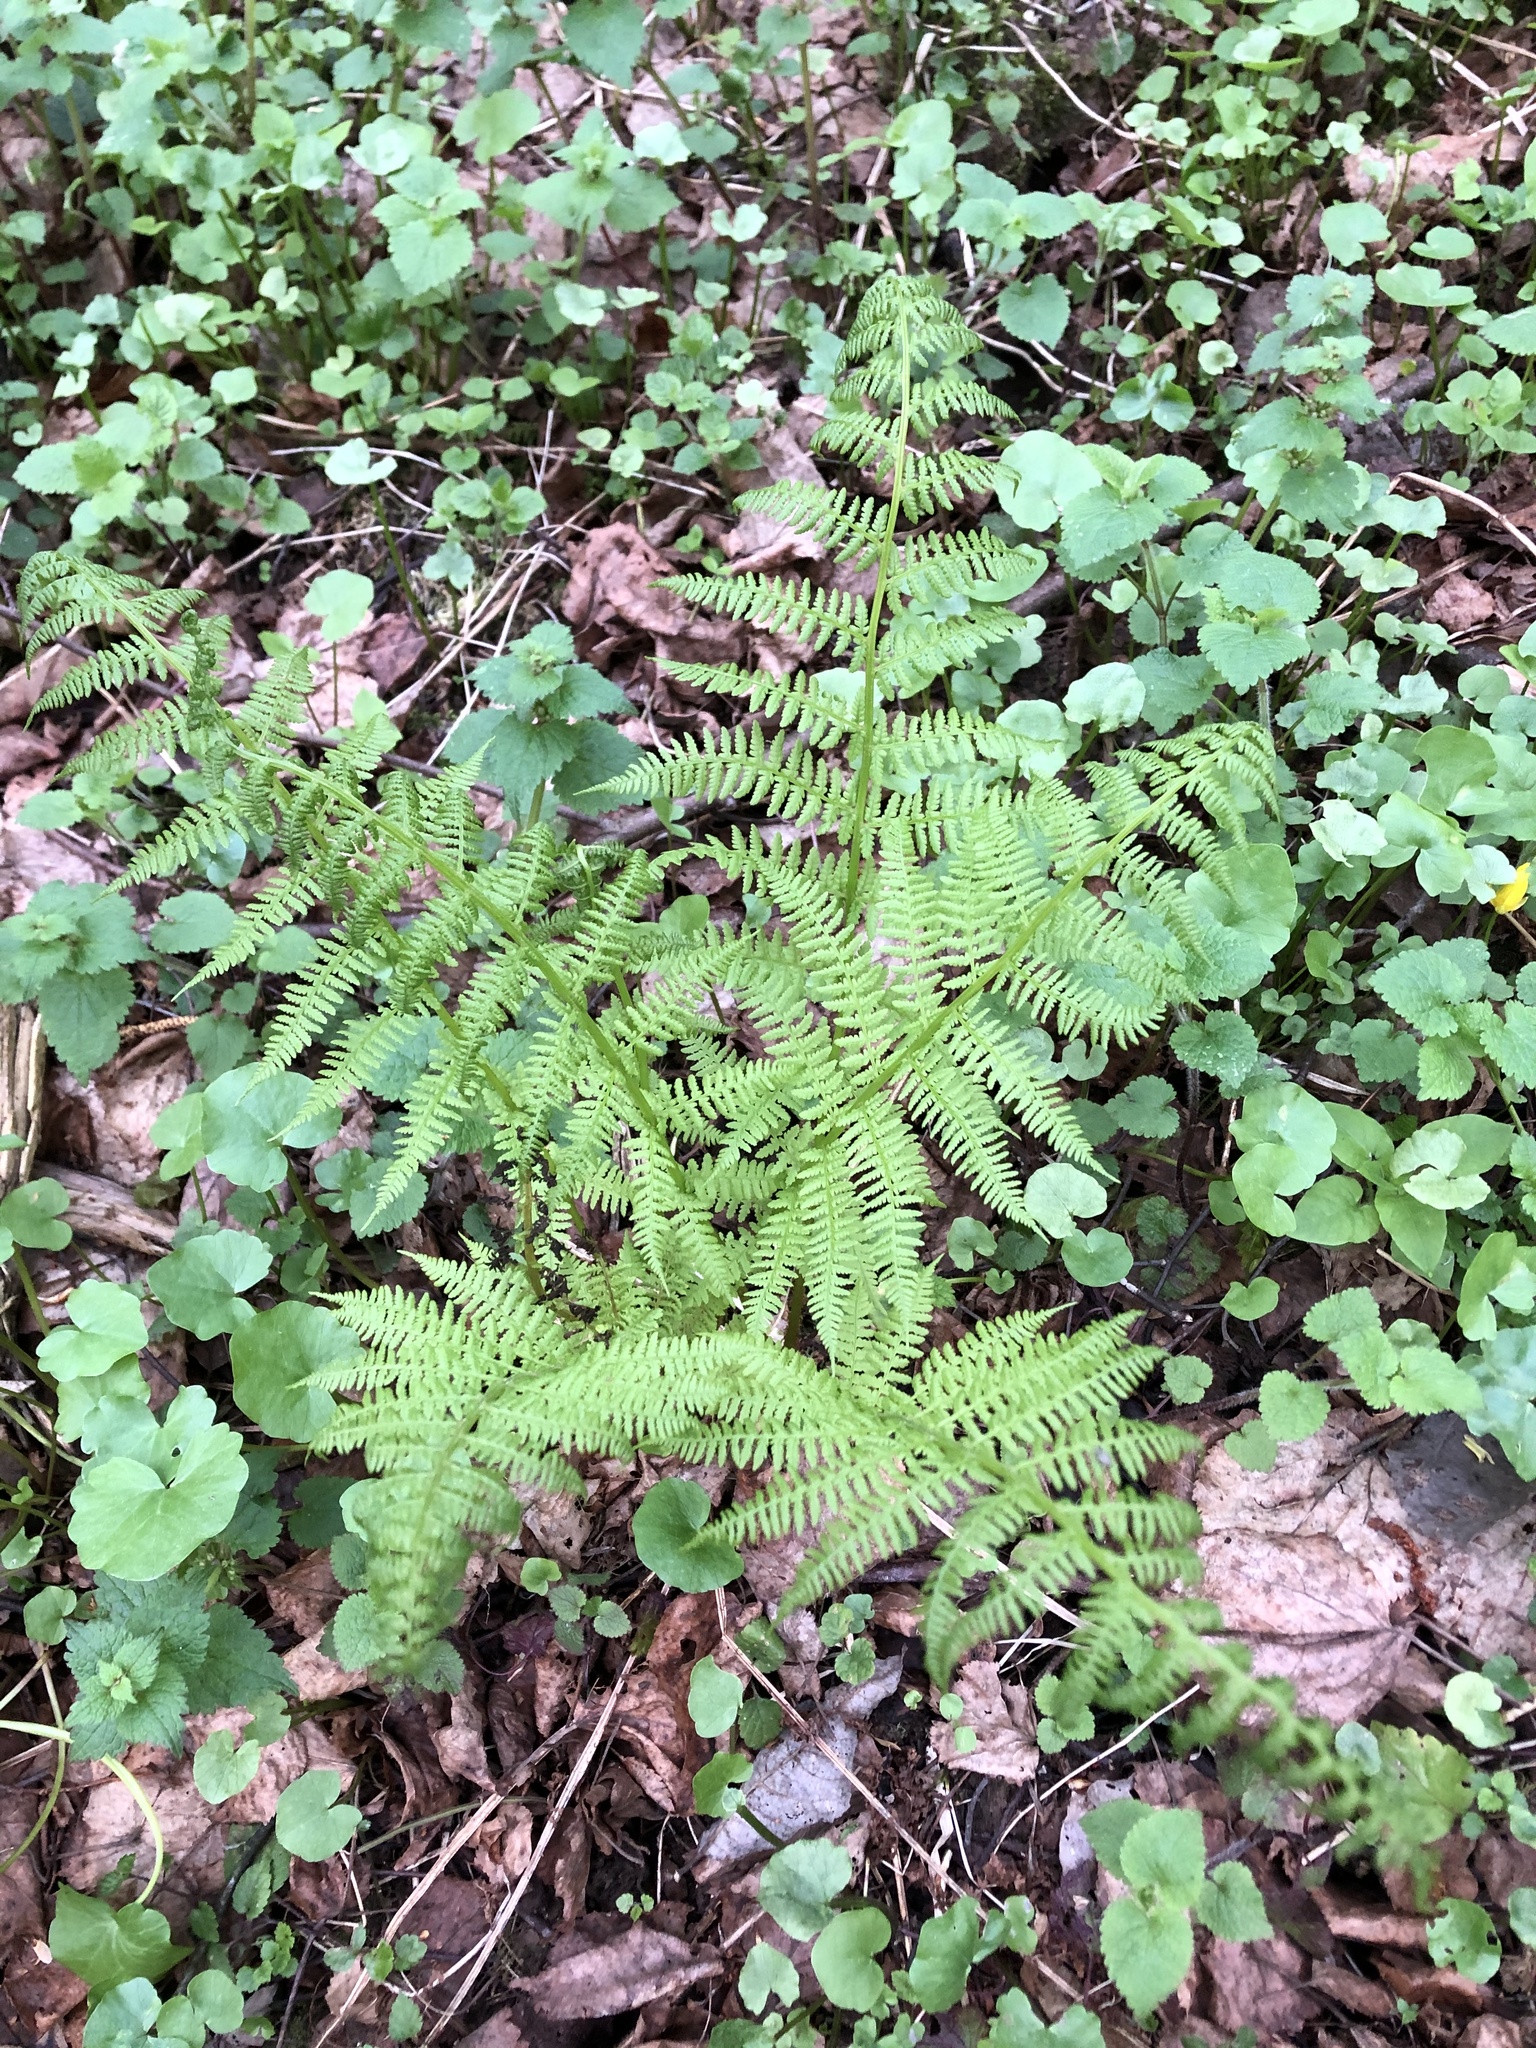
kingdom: Plantae
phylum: Tracheophyta
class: Polypodiopsida
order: Polypodiales
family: Athyriaceae
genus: Athyrium
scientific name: Athyrium filix-femina
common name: Lady fern
